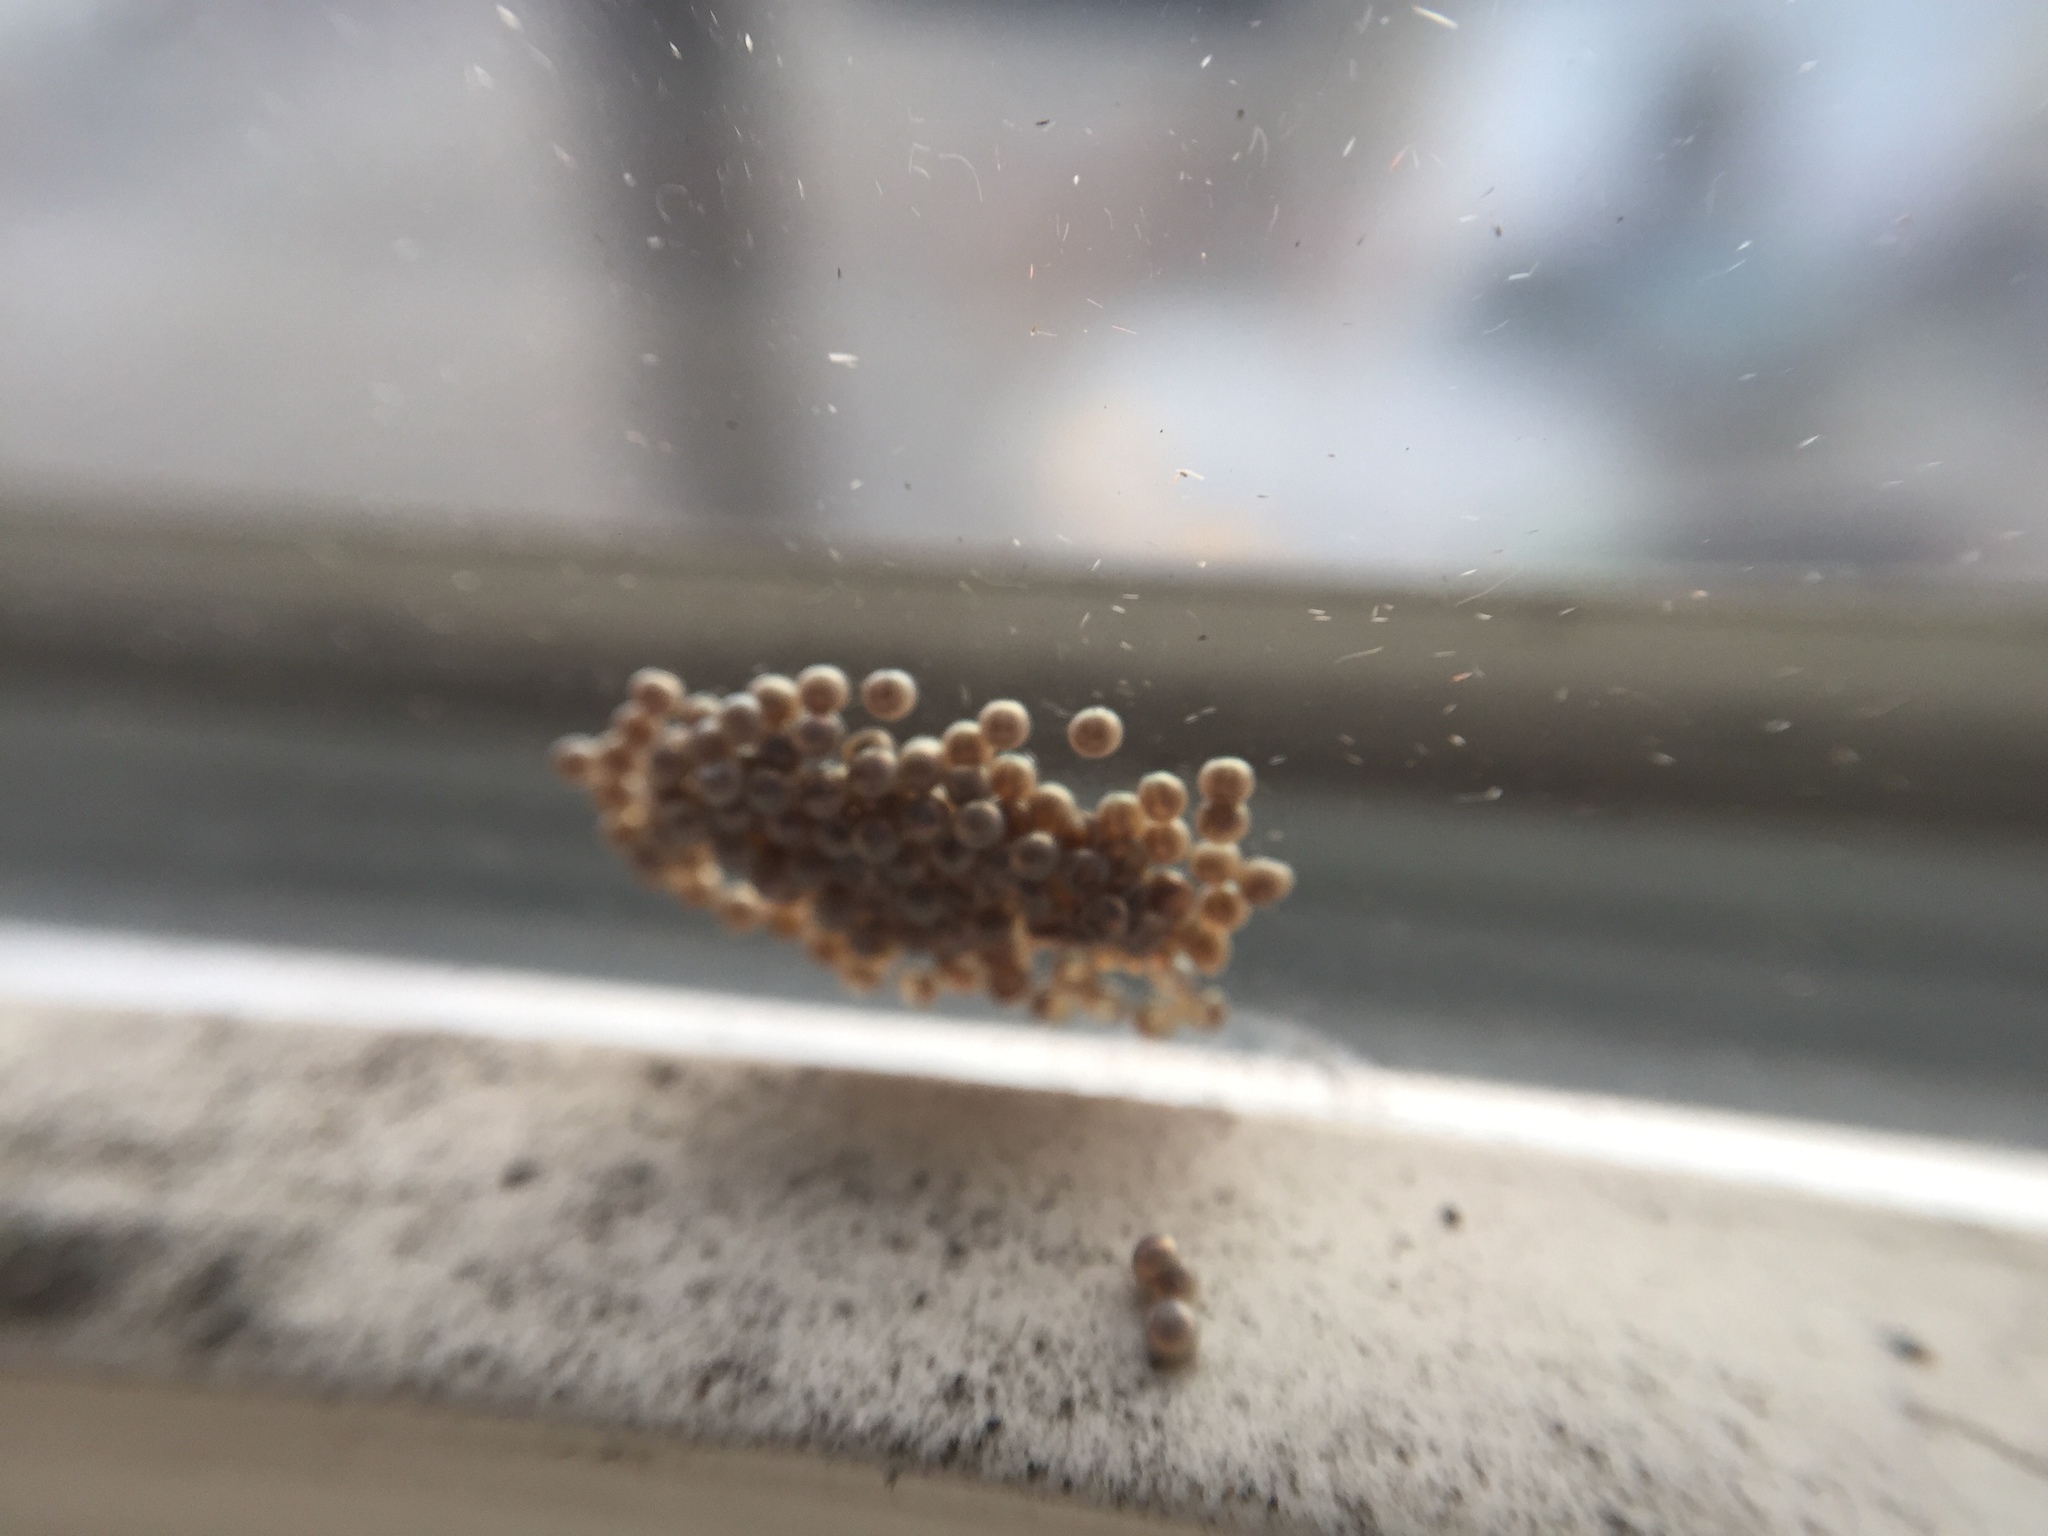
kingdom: Animalia
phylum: Arthropoda
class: Insecta
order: Lepidoptera
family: Erebidae
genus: Arachnis
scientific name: Arachnis picta
